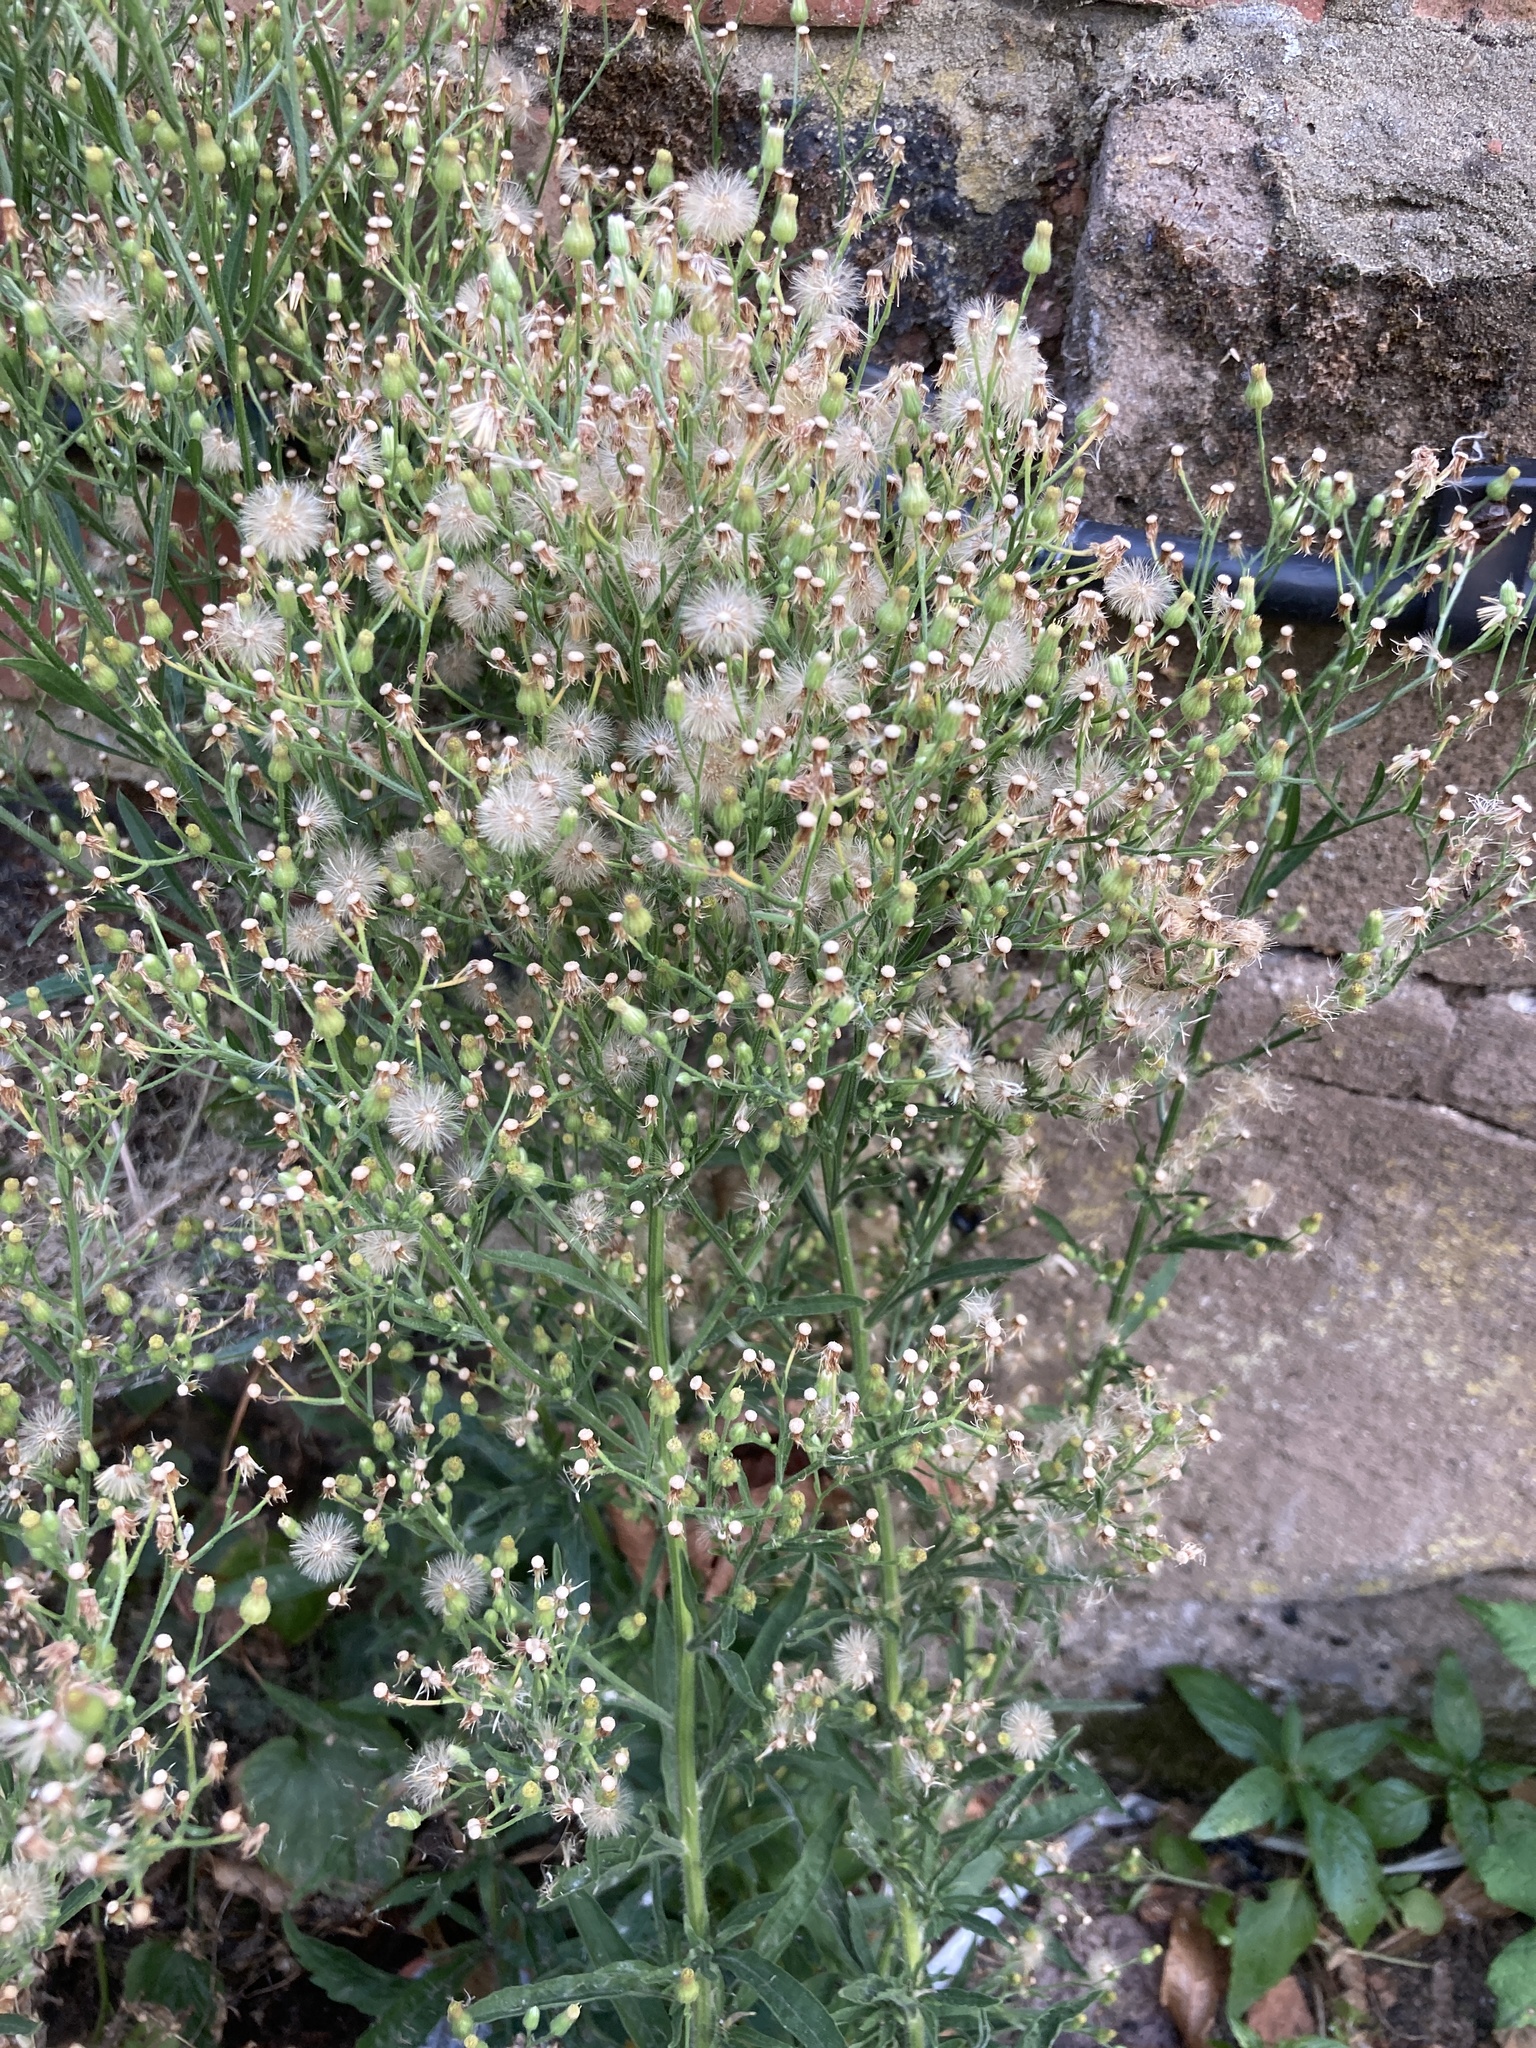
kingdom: Plantae
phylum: Tracheophyta
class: Magnoliopsida
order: Asterales
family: Asteraceae
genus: Erigeron
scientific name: Erigeron sumatrensis
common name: Daisy
